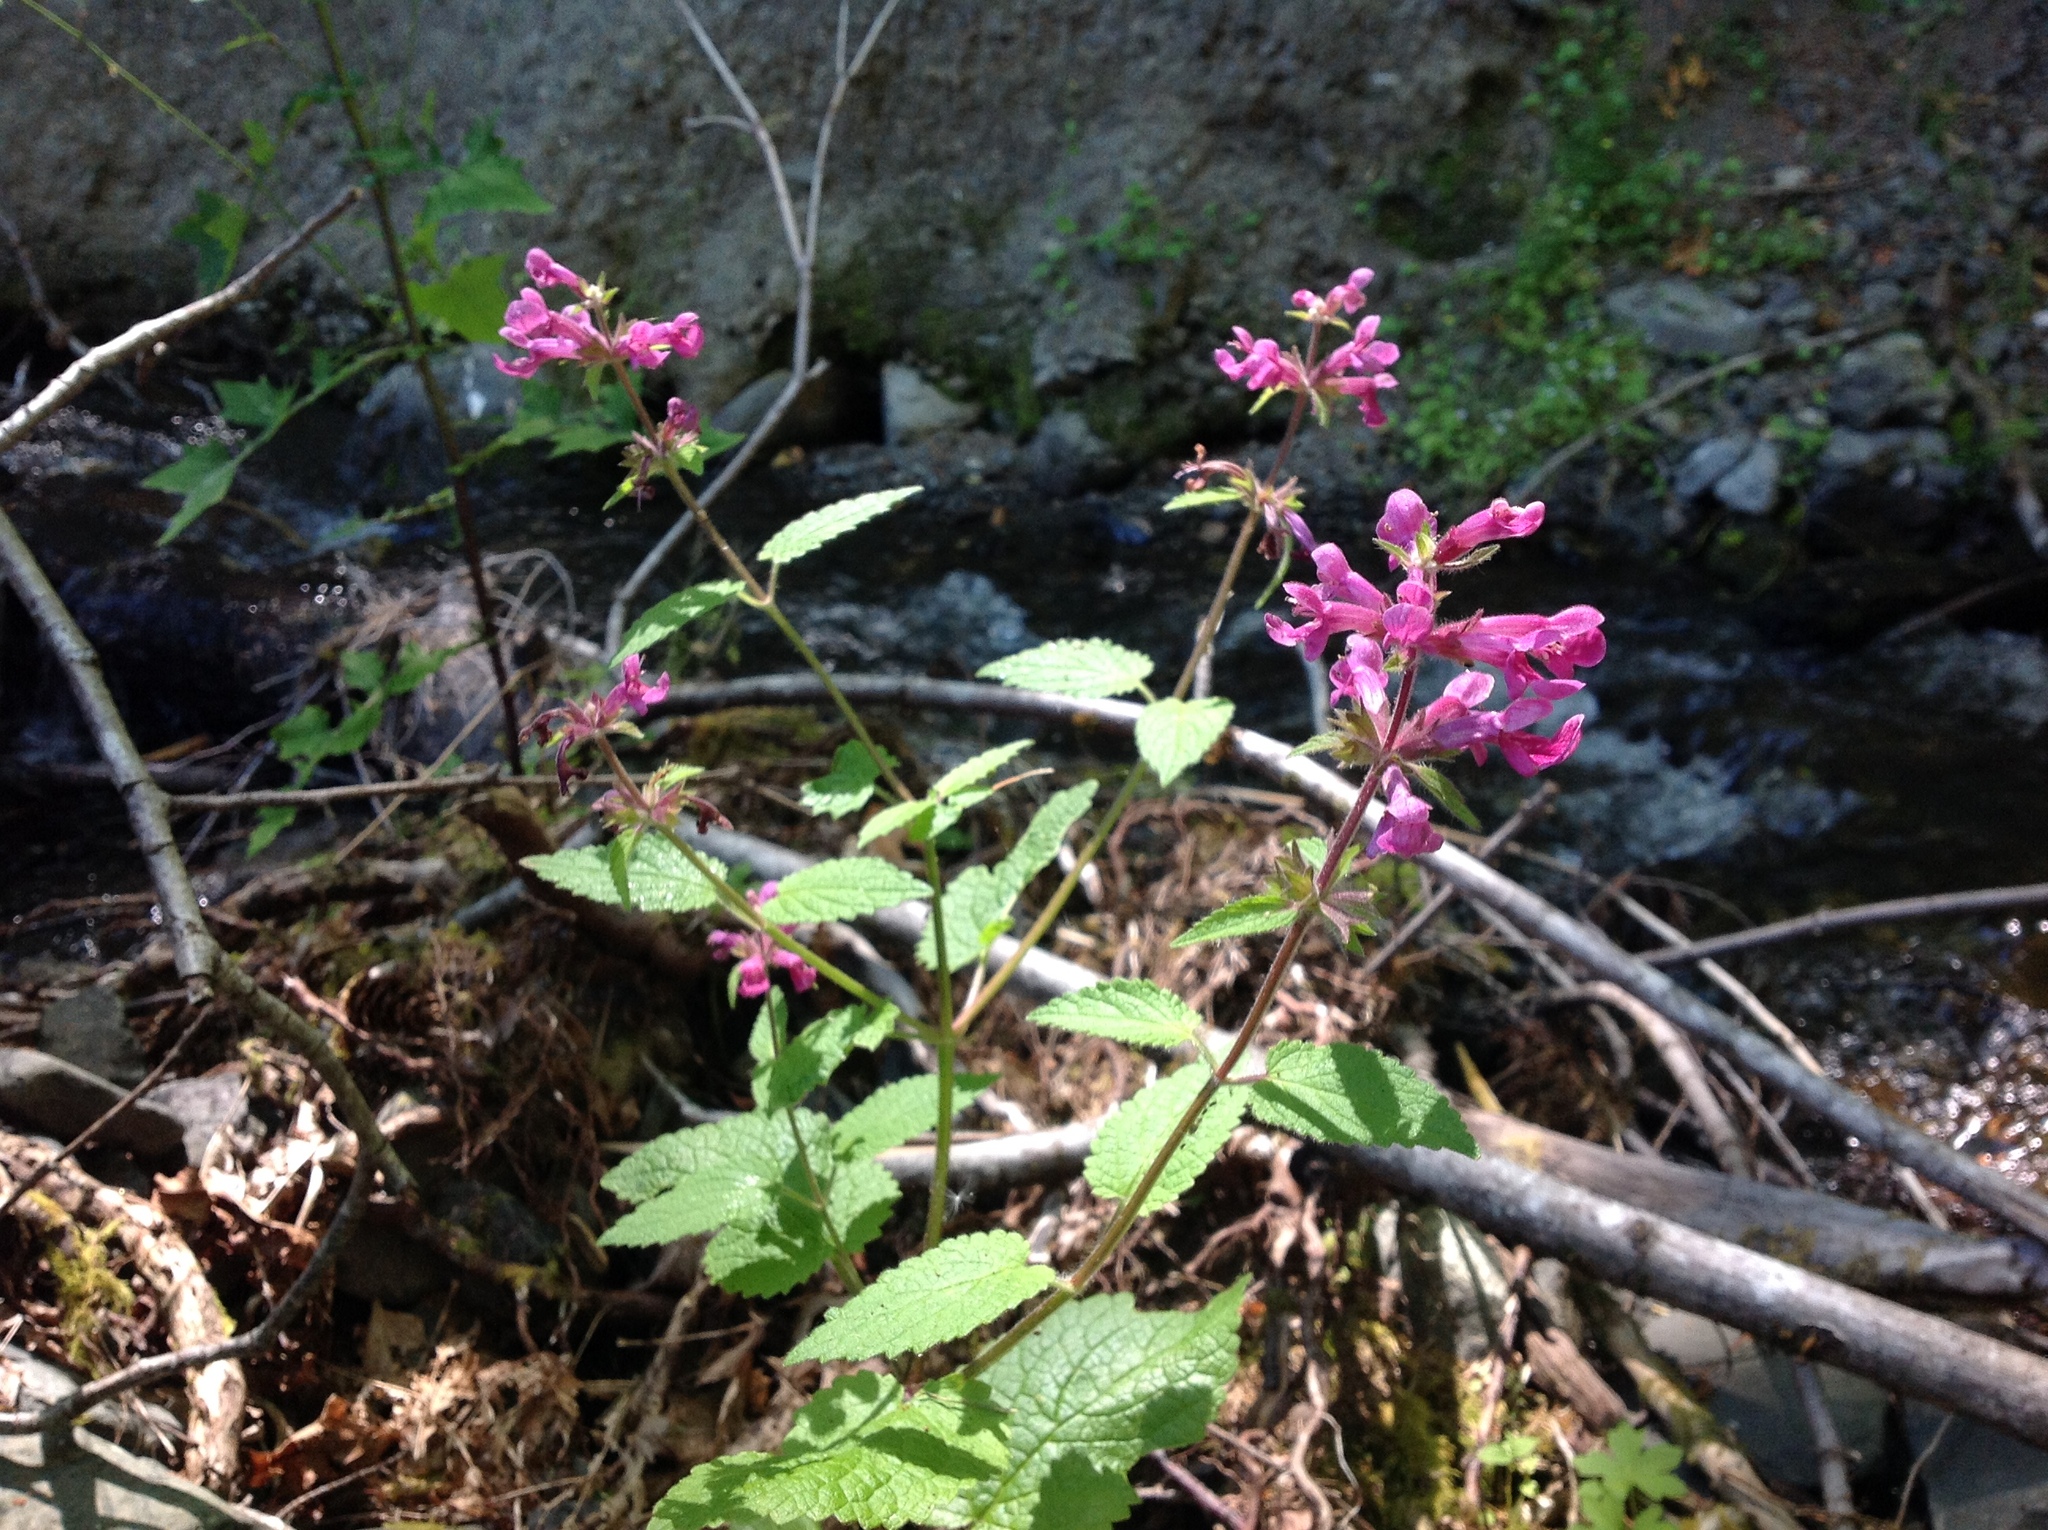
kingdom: Plantae
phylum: Tracheophyta
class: Magnoliopsida
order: Lamiales
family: Lamiaceae
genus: Stachys
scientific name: Stachys chamissonis
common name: Coastal hedge-nettle
